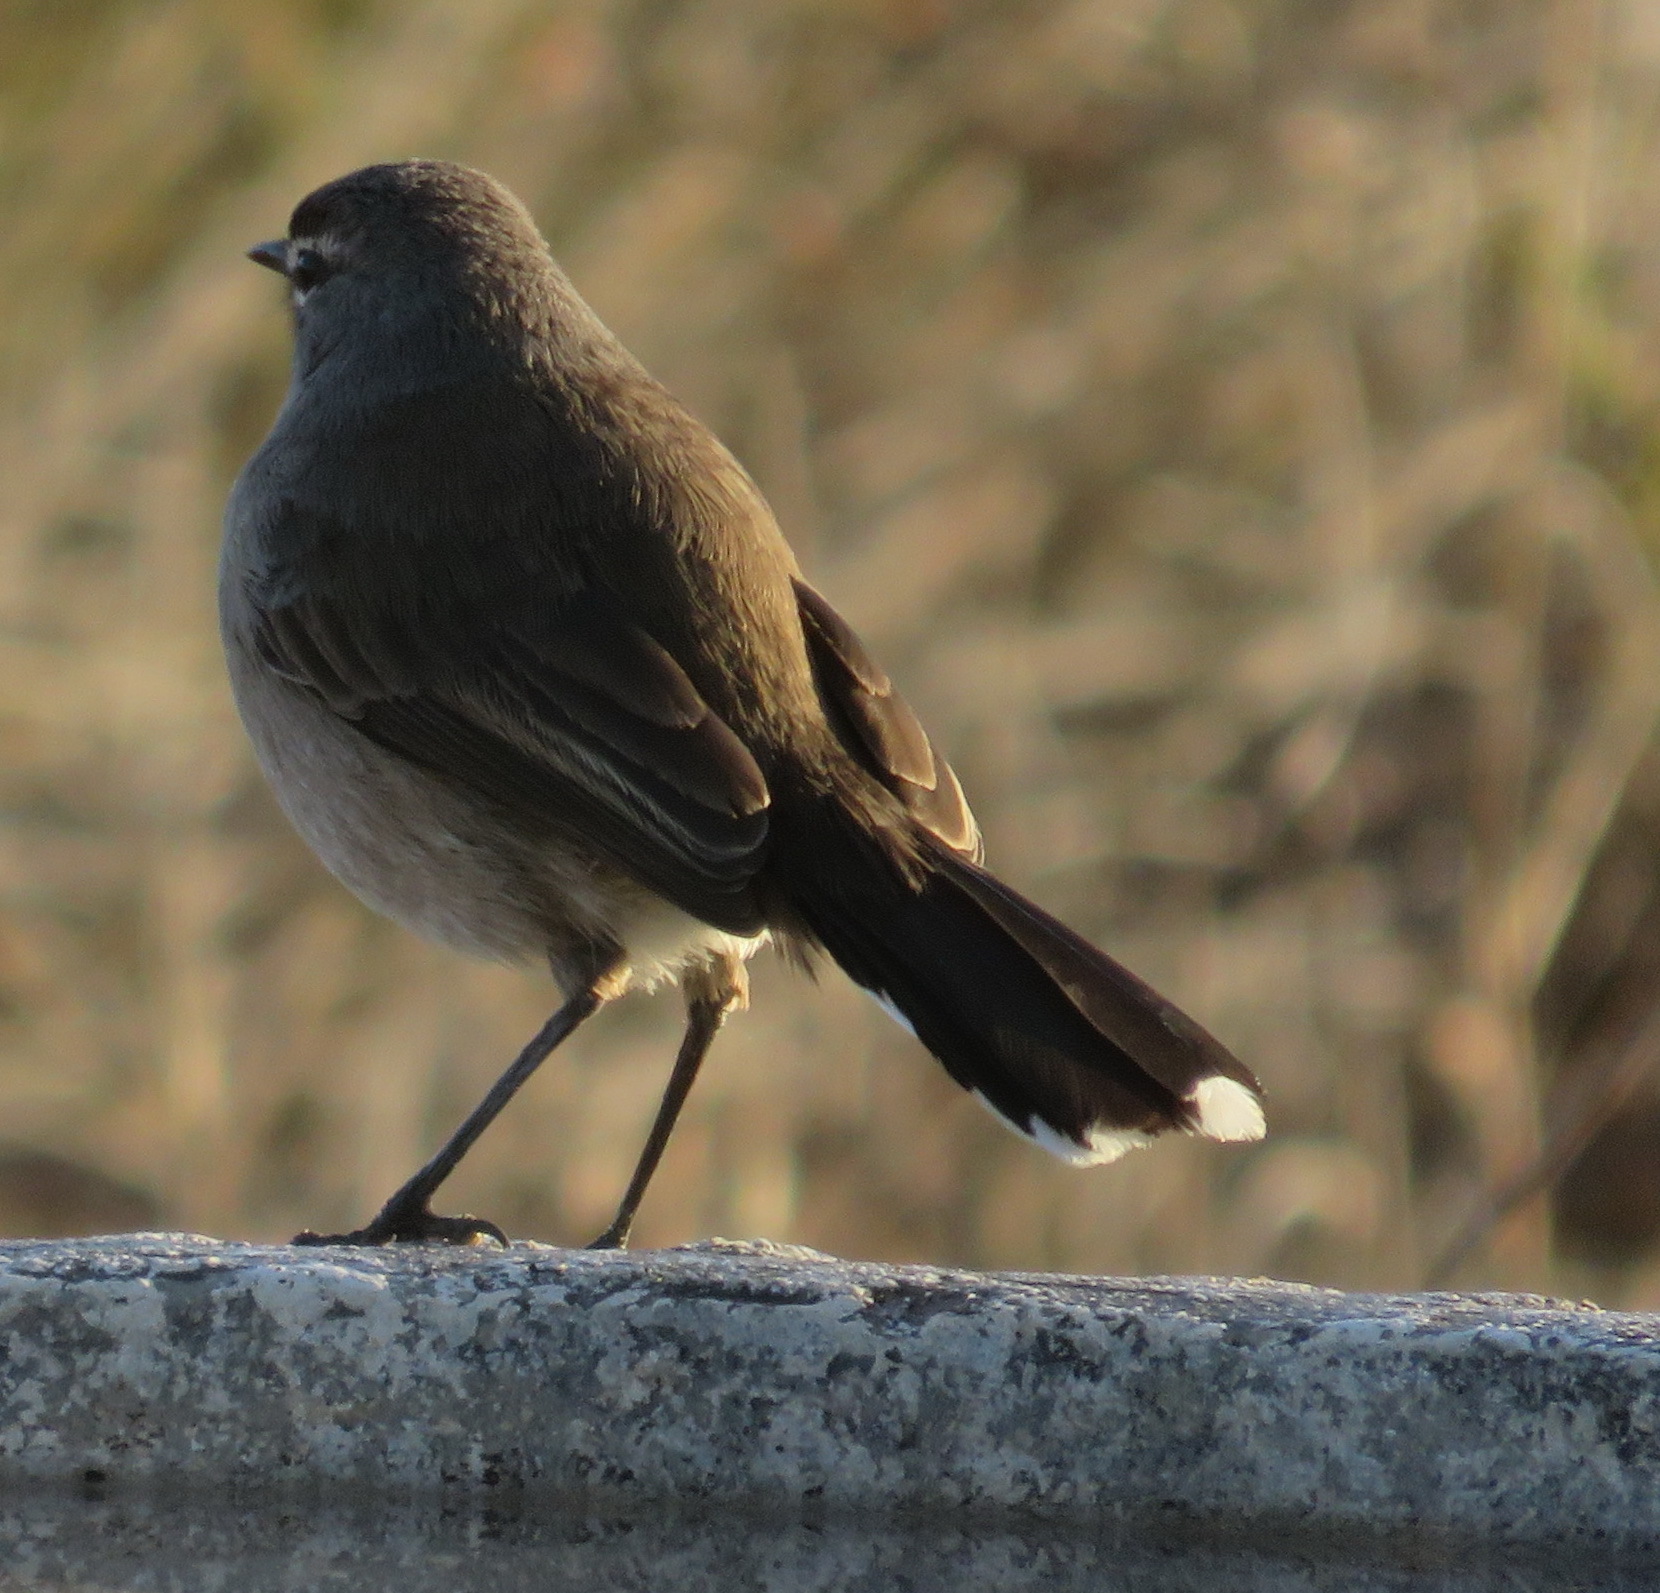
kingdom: Animalia
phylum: Chordata
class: Aves
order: Passeriformes
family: Muscicapidae
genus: Erythropygia
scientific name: Erythropygia coryphoeus
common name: Karoo scrub robin
